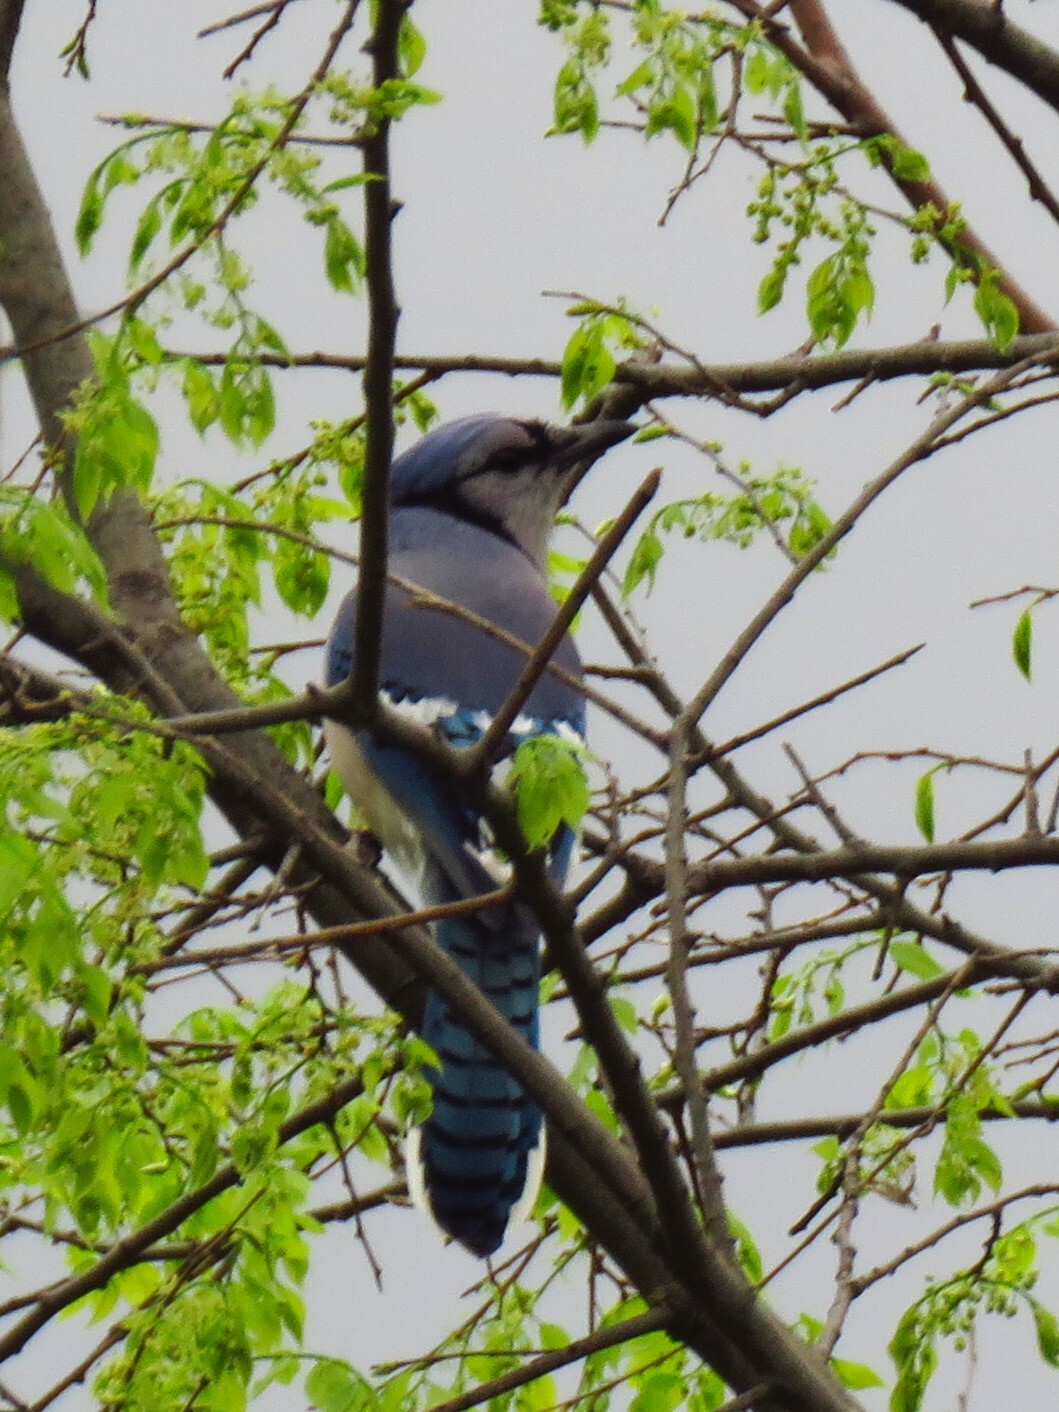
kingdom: Animalia
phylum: Chordata
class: Aves
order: Passeriformes
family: Corvidae
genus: Cyanocitta
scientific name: Cyanocitta cristata
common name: Blue jay
